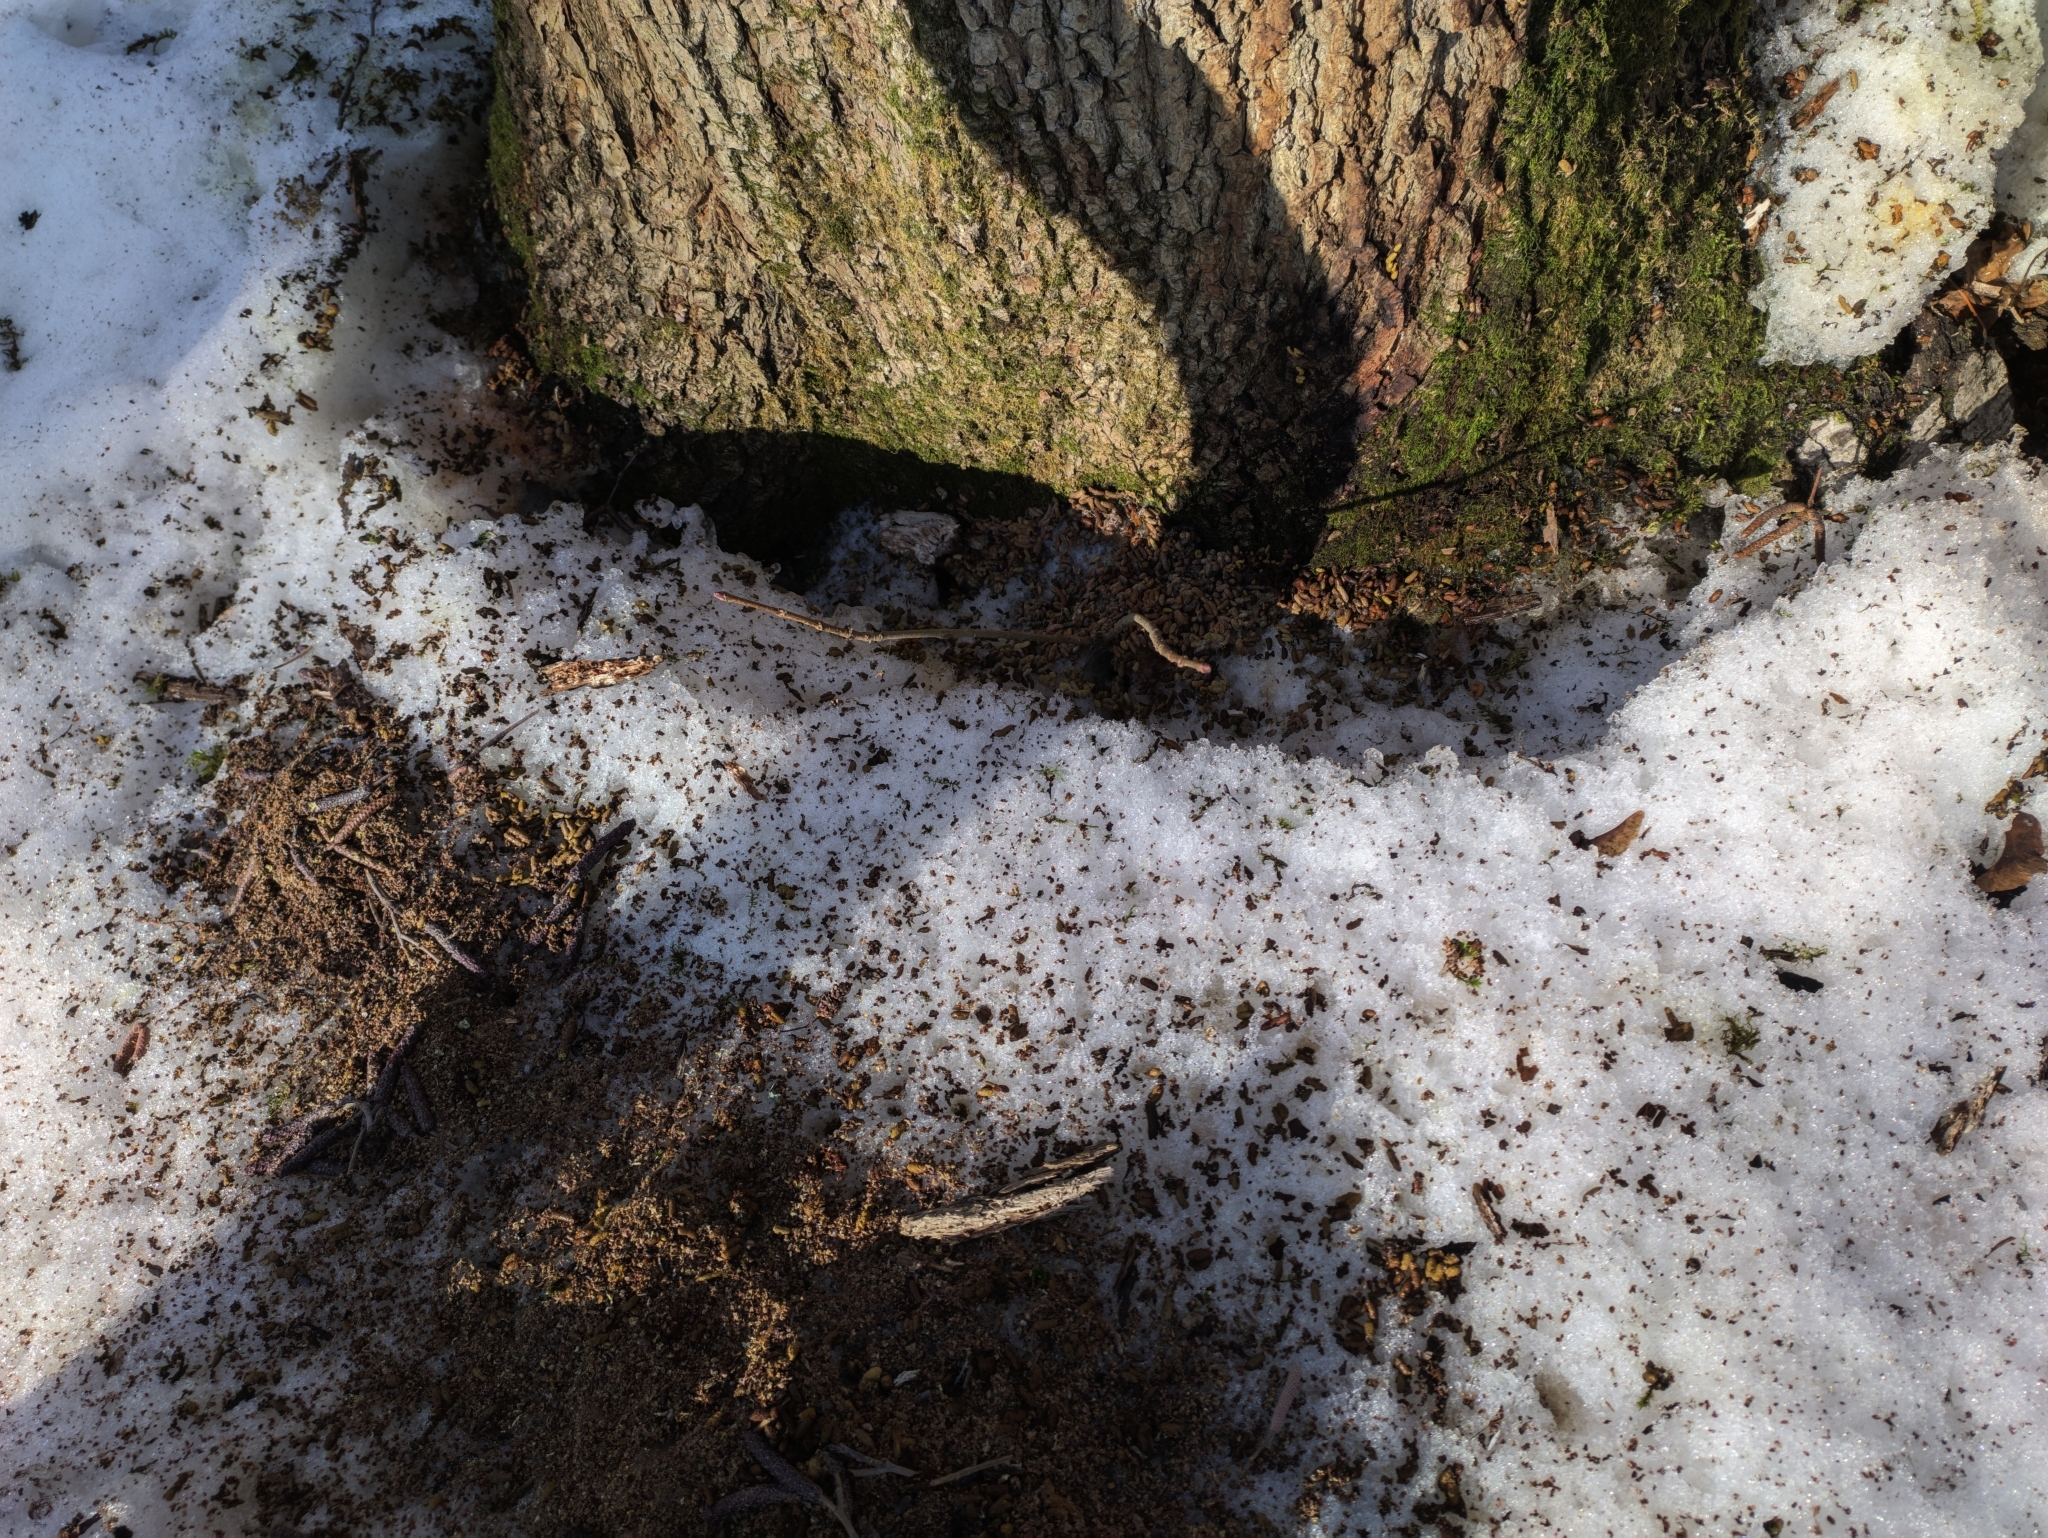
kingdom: Animalia
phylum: Chordata
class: Mammalia
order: Rodentia
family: Sciuridae
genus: Pteromys
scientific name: Pteromys volans
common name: Siberian flying squirrel
